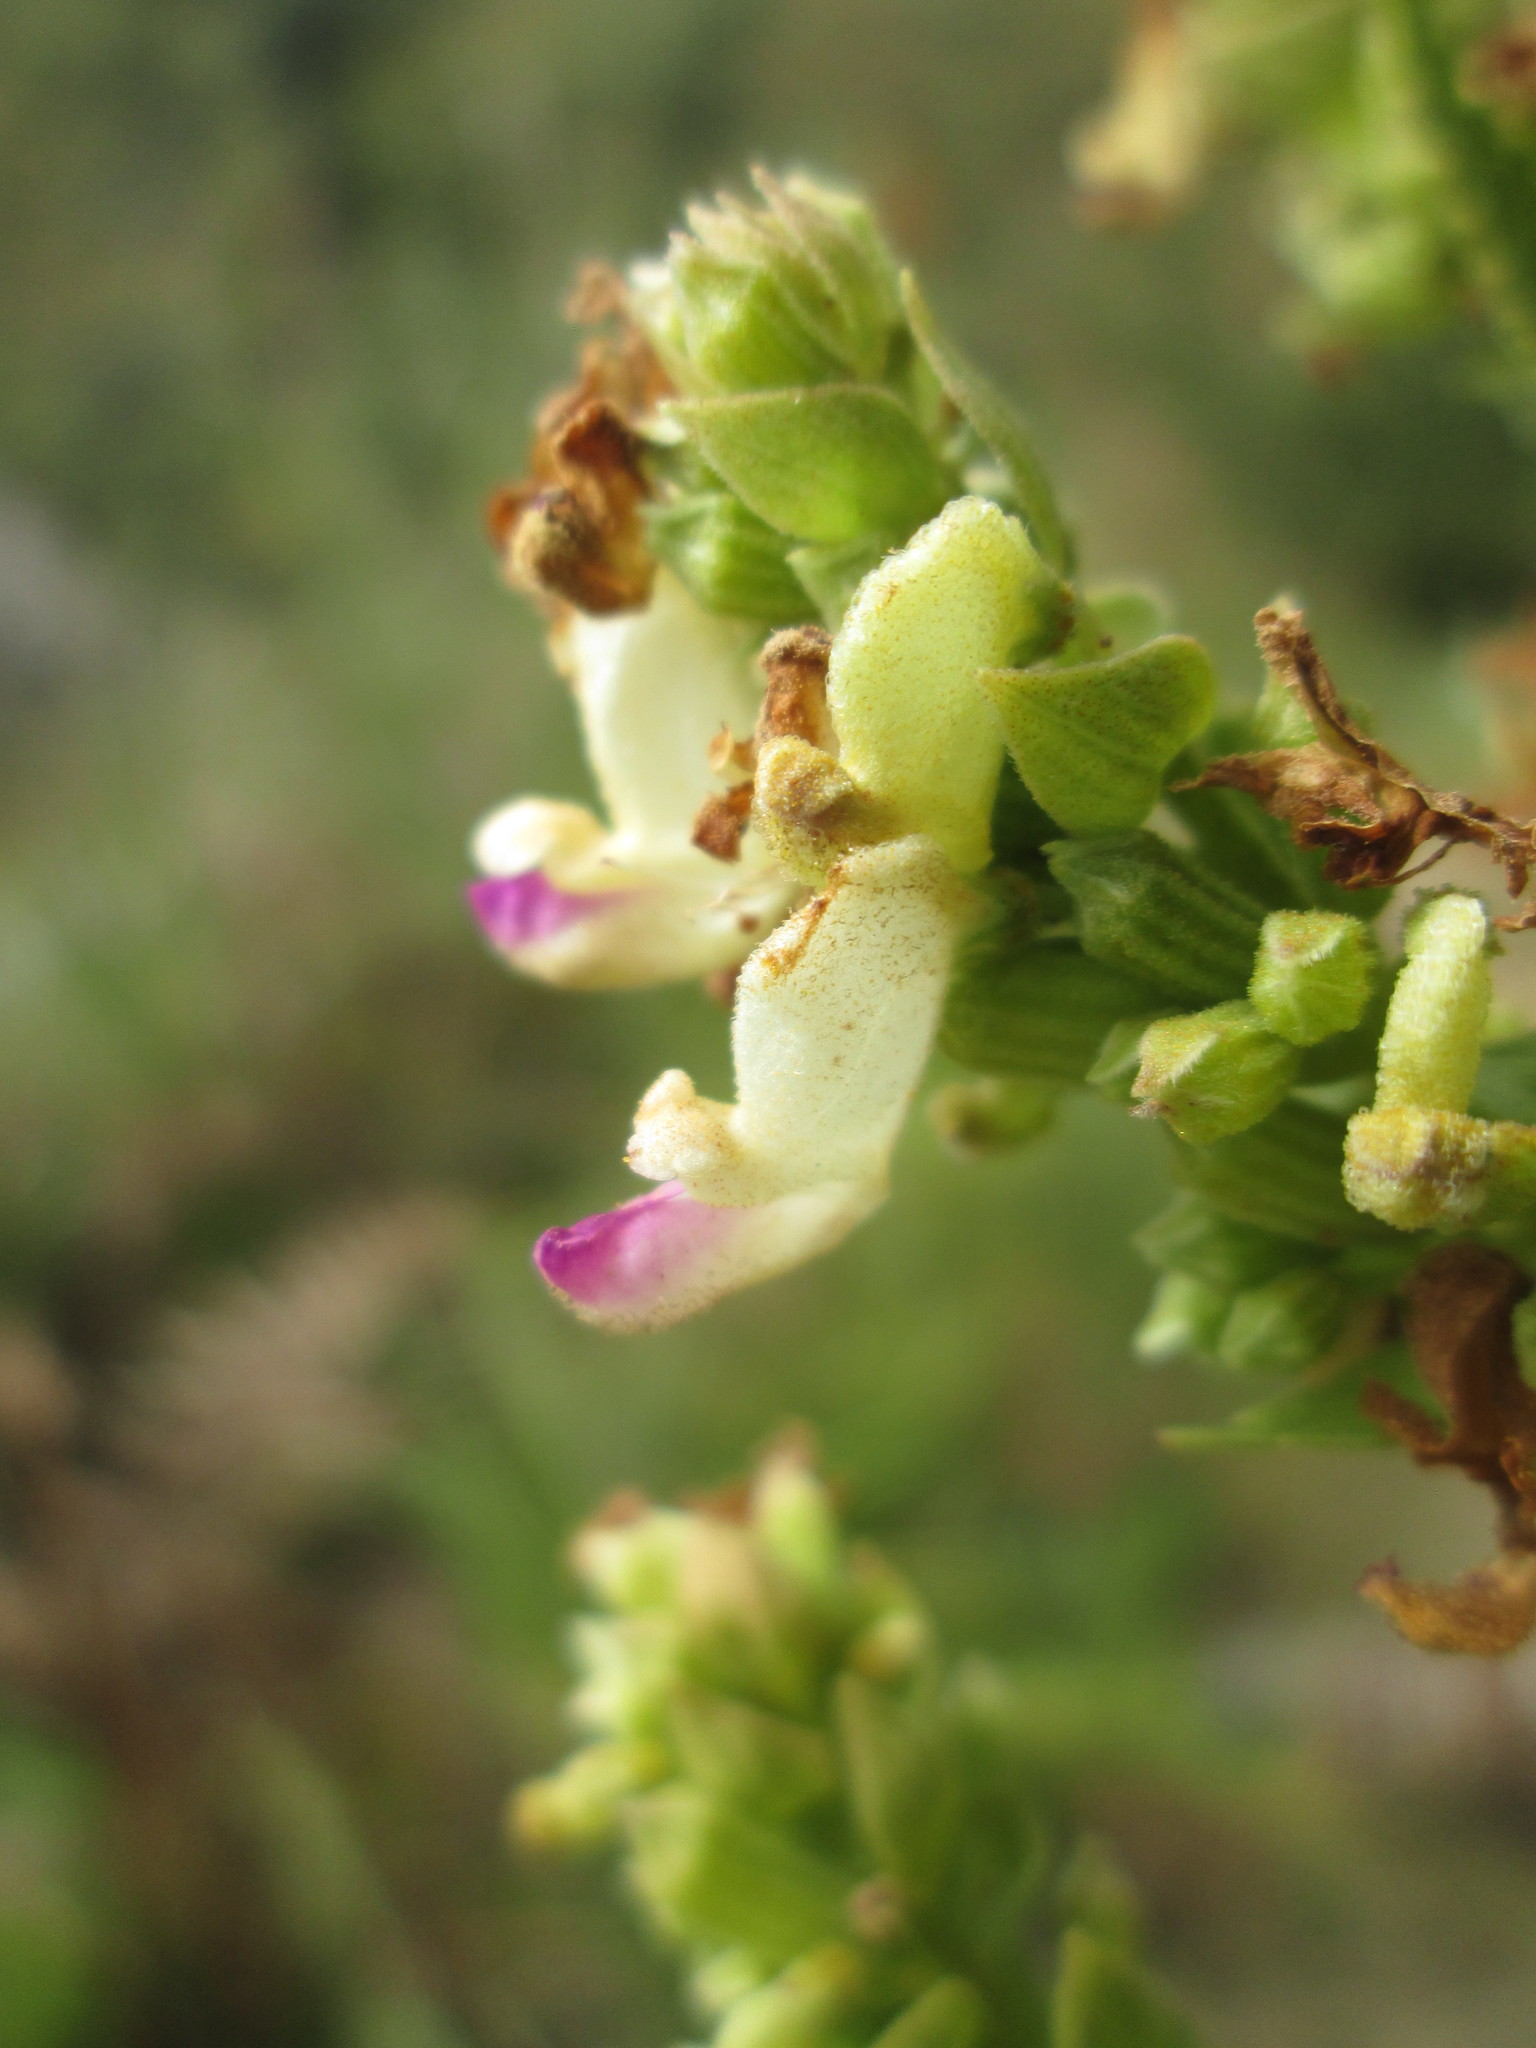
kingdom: Plantae
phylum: Tracheophyta
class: Magnoliopsida
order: Lamiales
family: Lamiaceae
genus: Coleus
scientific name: Coleus calycinus
